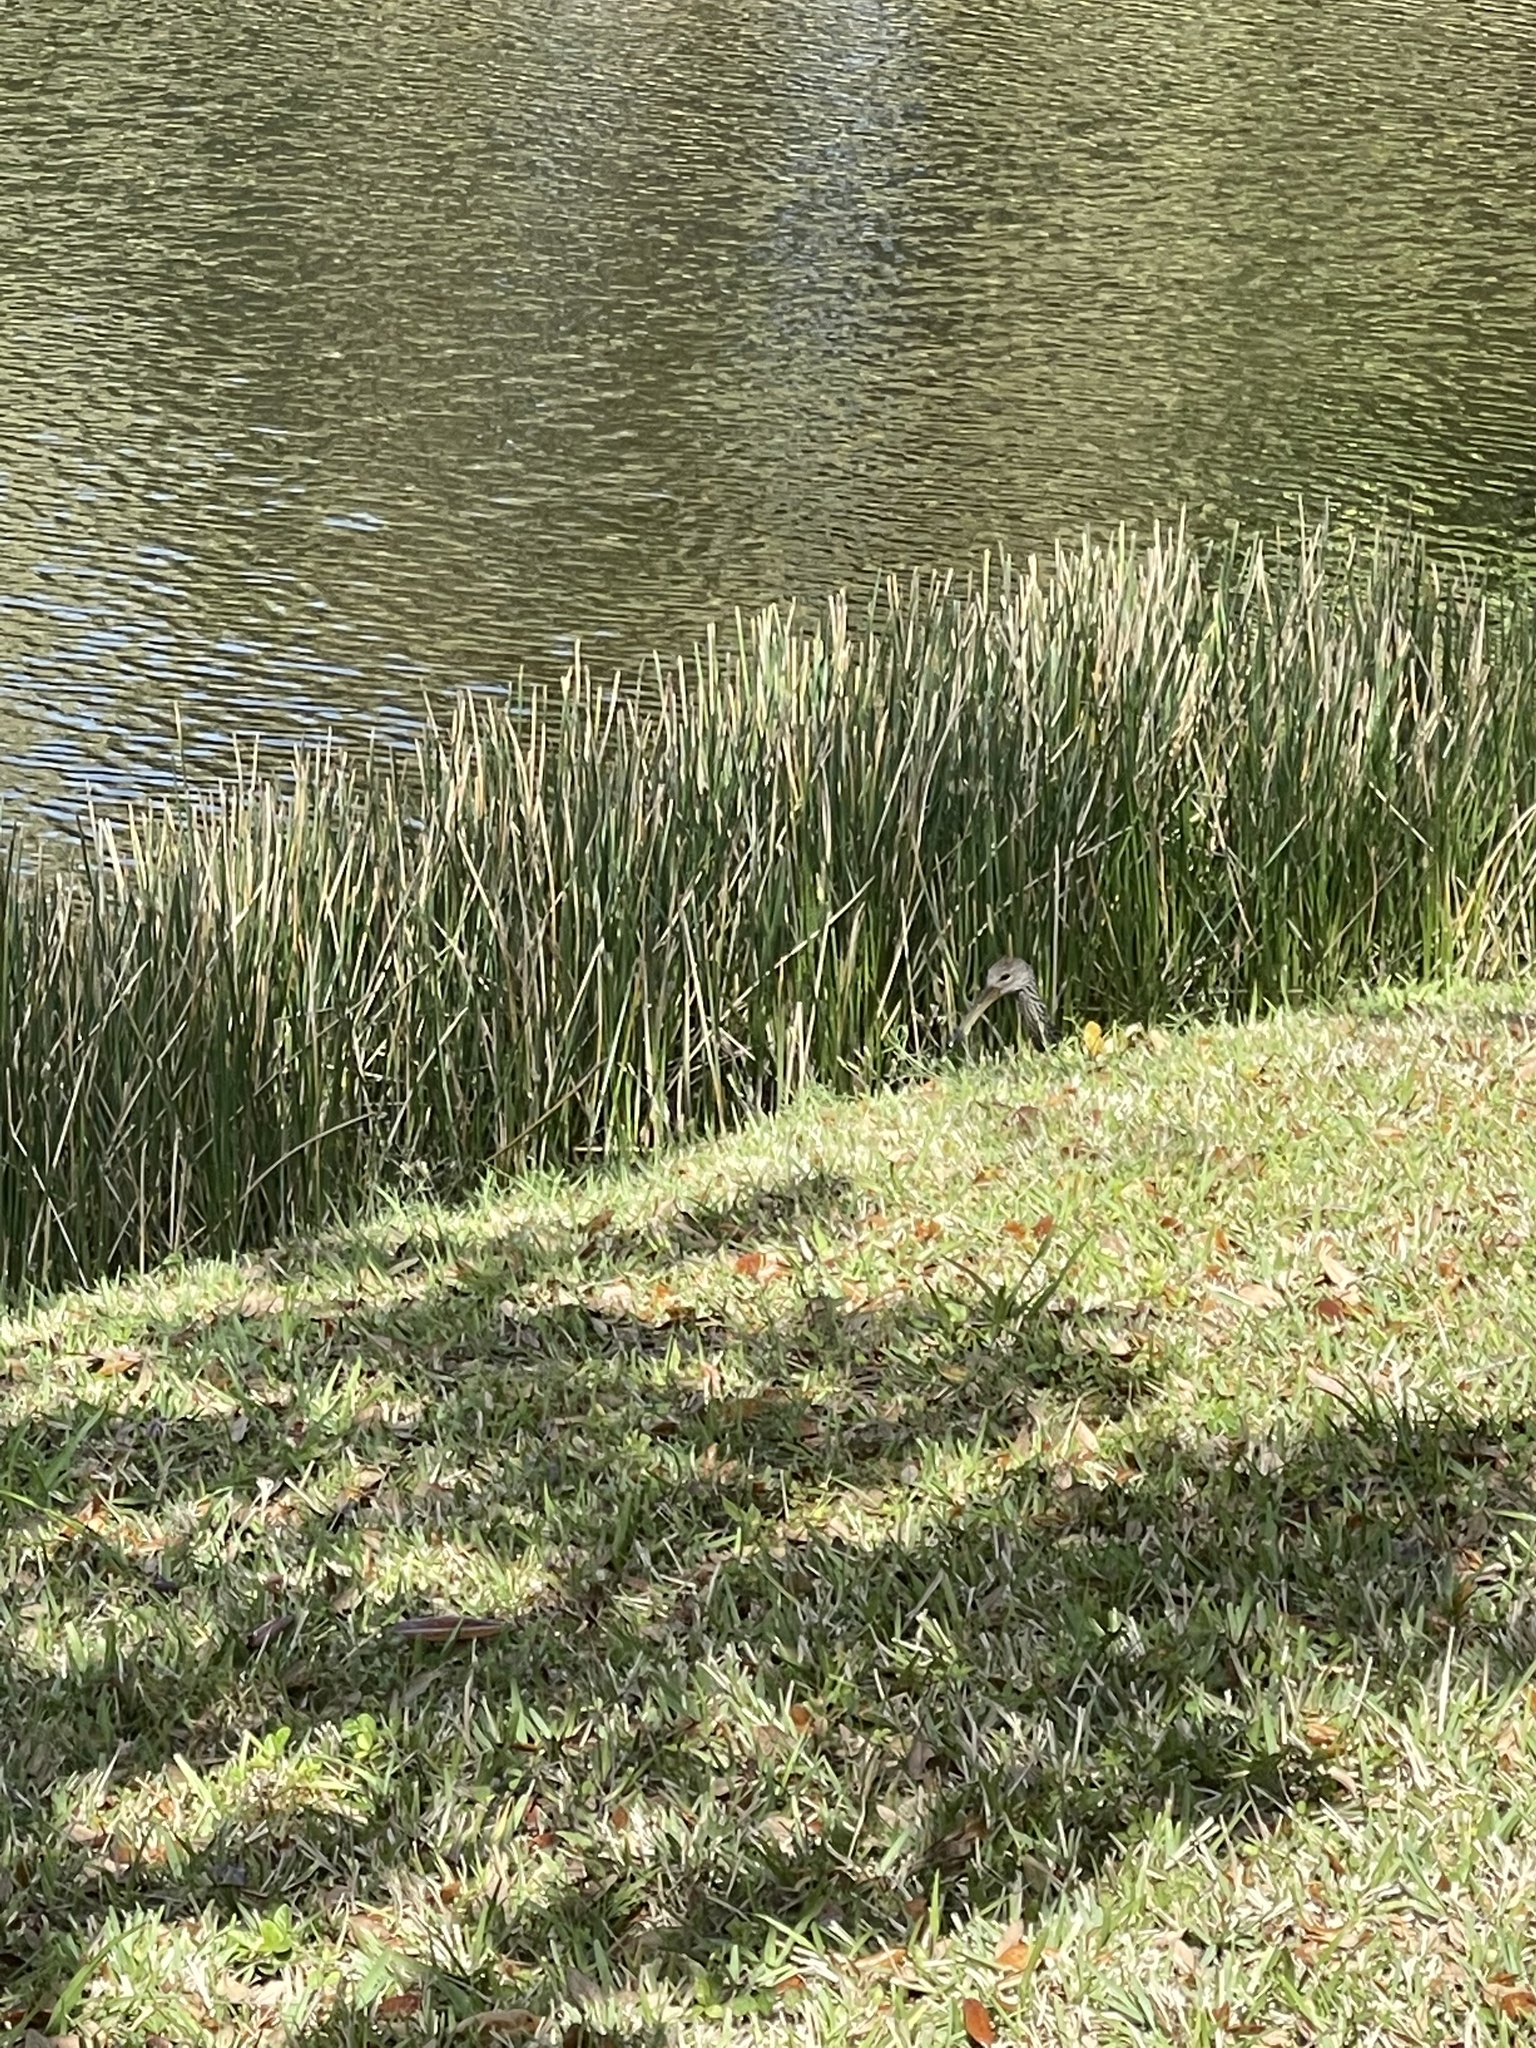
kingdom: Animalia
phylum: Chordata
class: Aves
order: Gruiformes
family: Aramidae
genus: Aramus
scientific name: Aramus guarauna
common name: Limpkin
